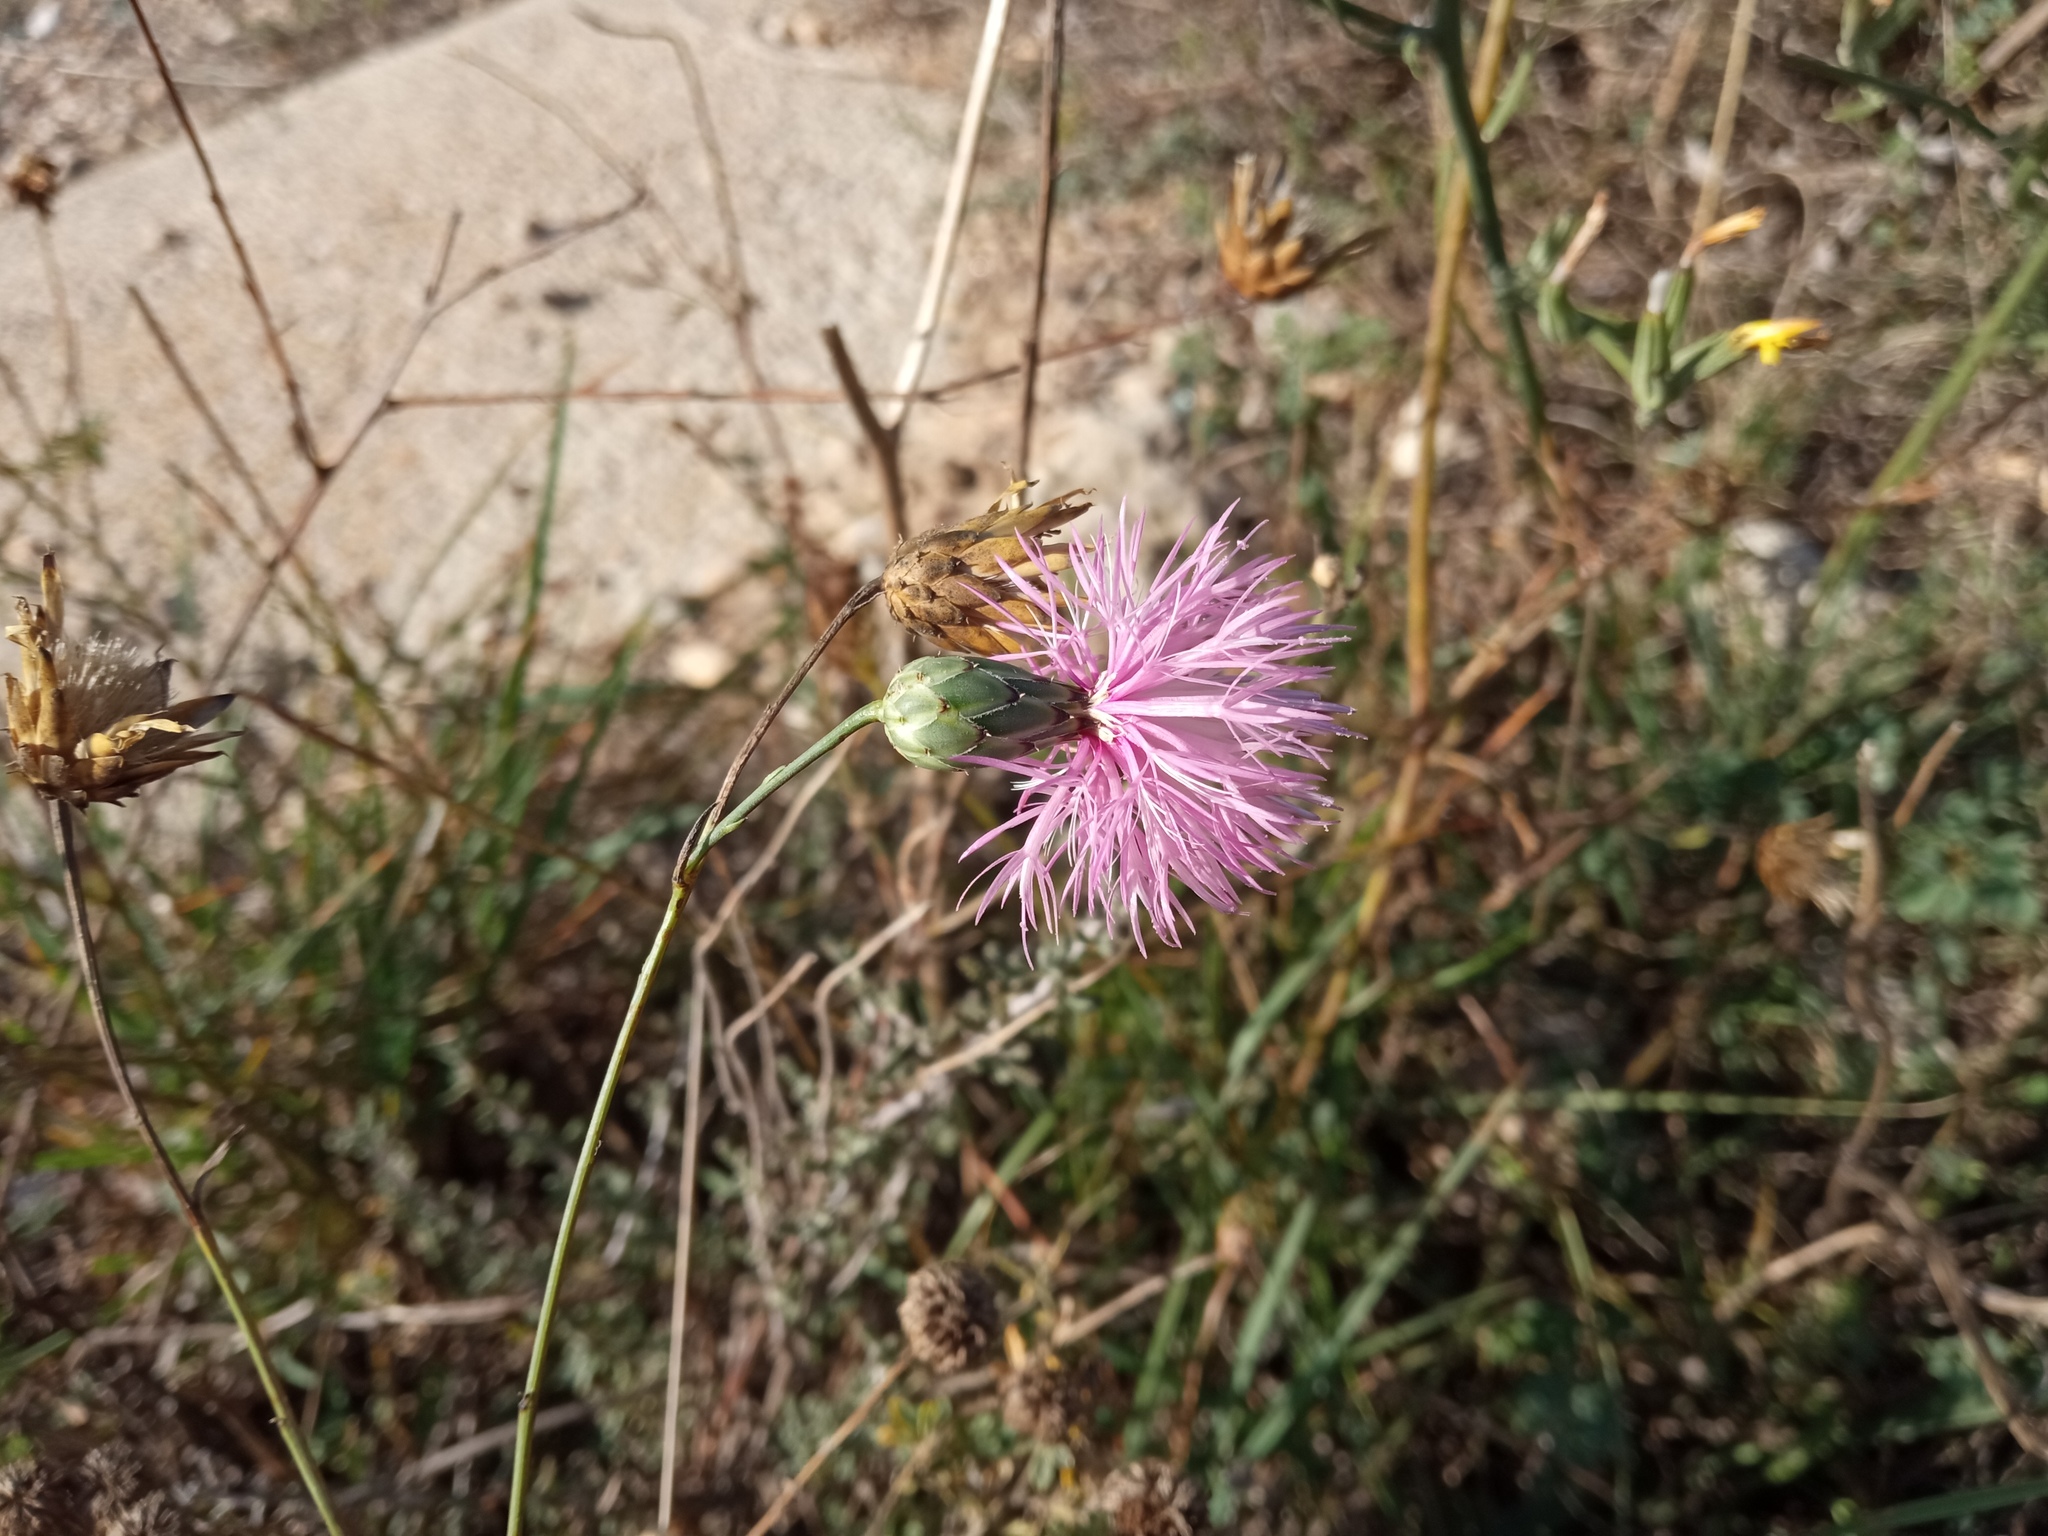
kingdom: Plantae
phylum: Tracheophyta
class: Magnoliopsida
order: Asterales
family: Asteraceae
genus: Mantisalca
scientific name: Mantisalca salmantica
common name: Dagger flower
